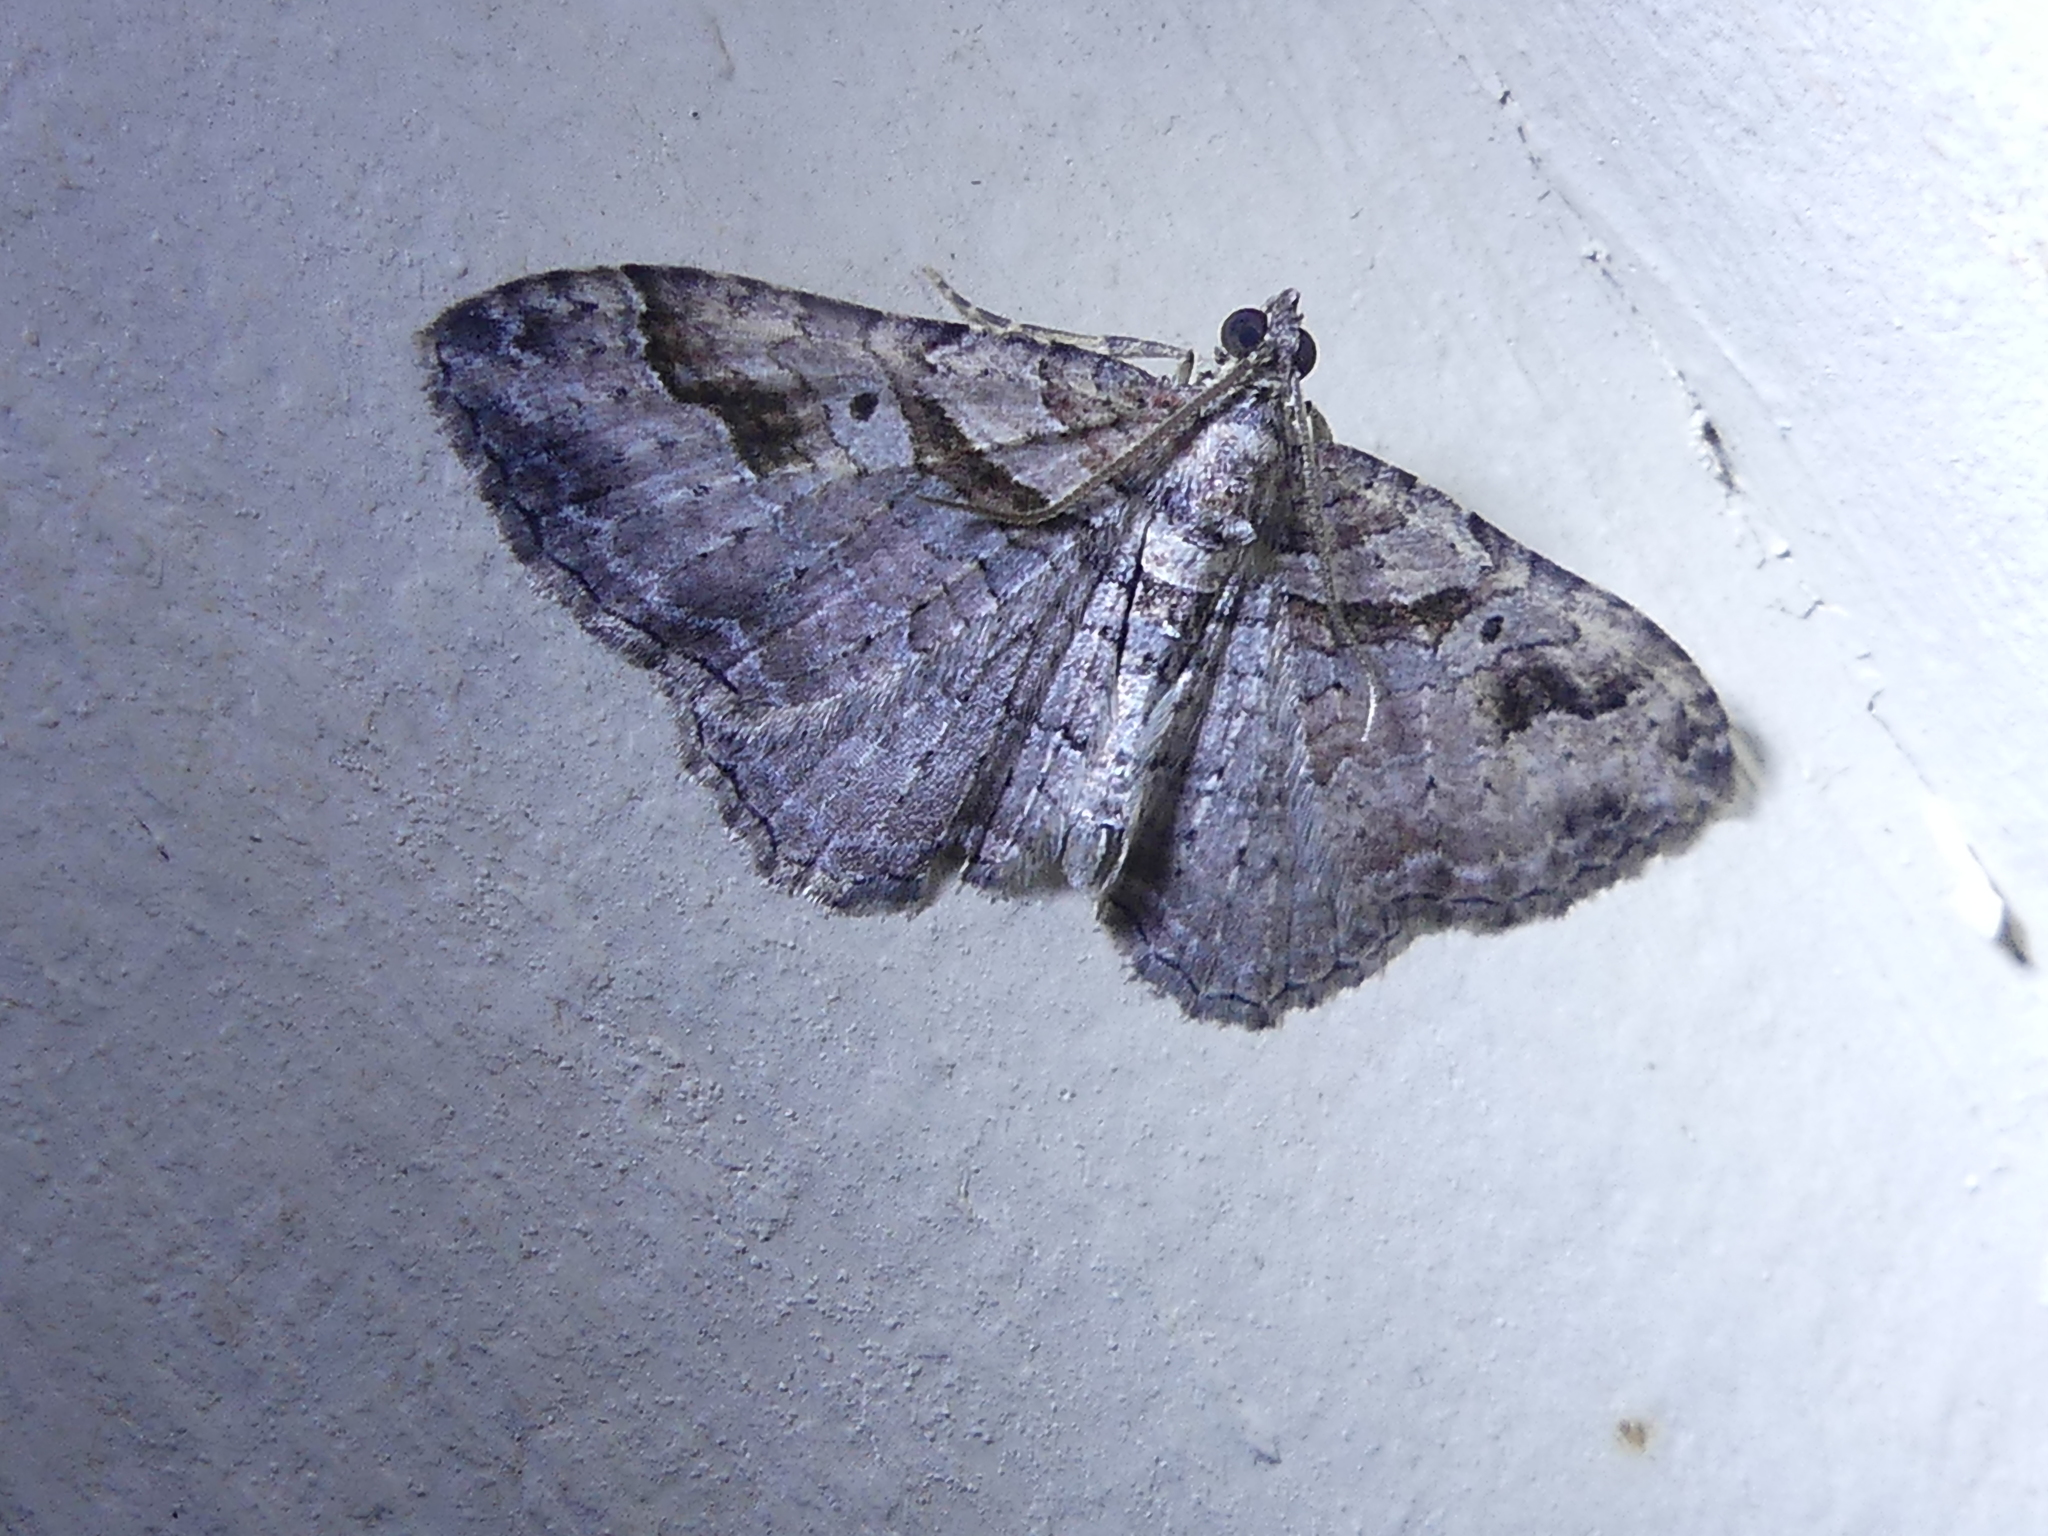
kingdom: Animalia
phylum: Arthropoda
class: Insecta
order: Lepidoptera
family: Geometridae
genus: Costaconvexa
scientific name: Costaconvexa centrostrigaria
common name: Bent-line carpet
